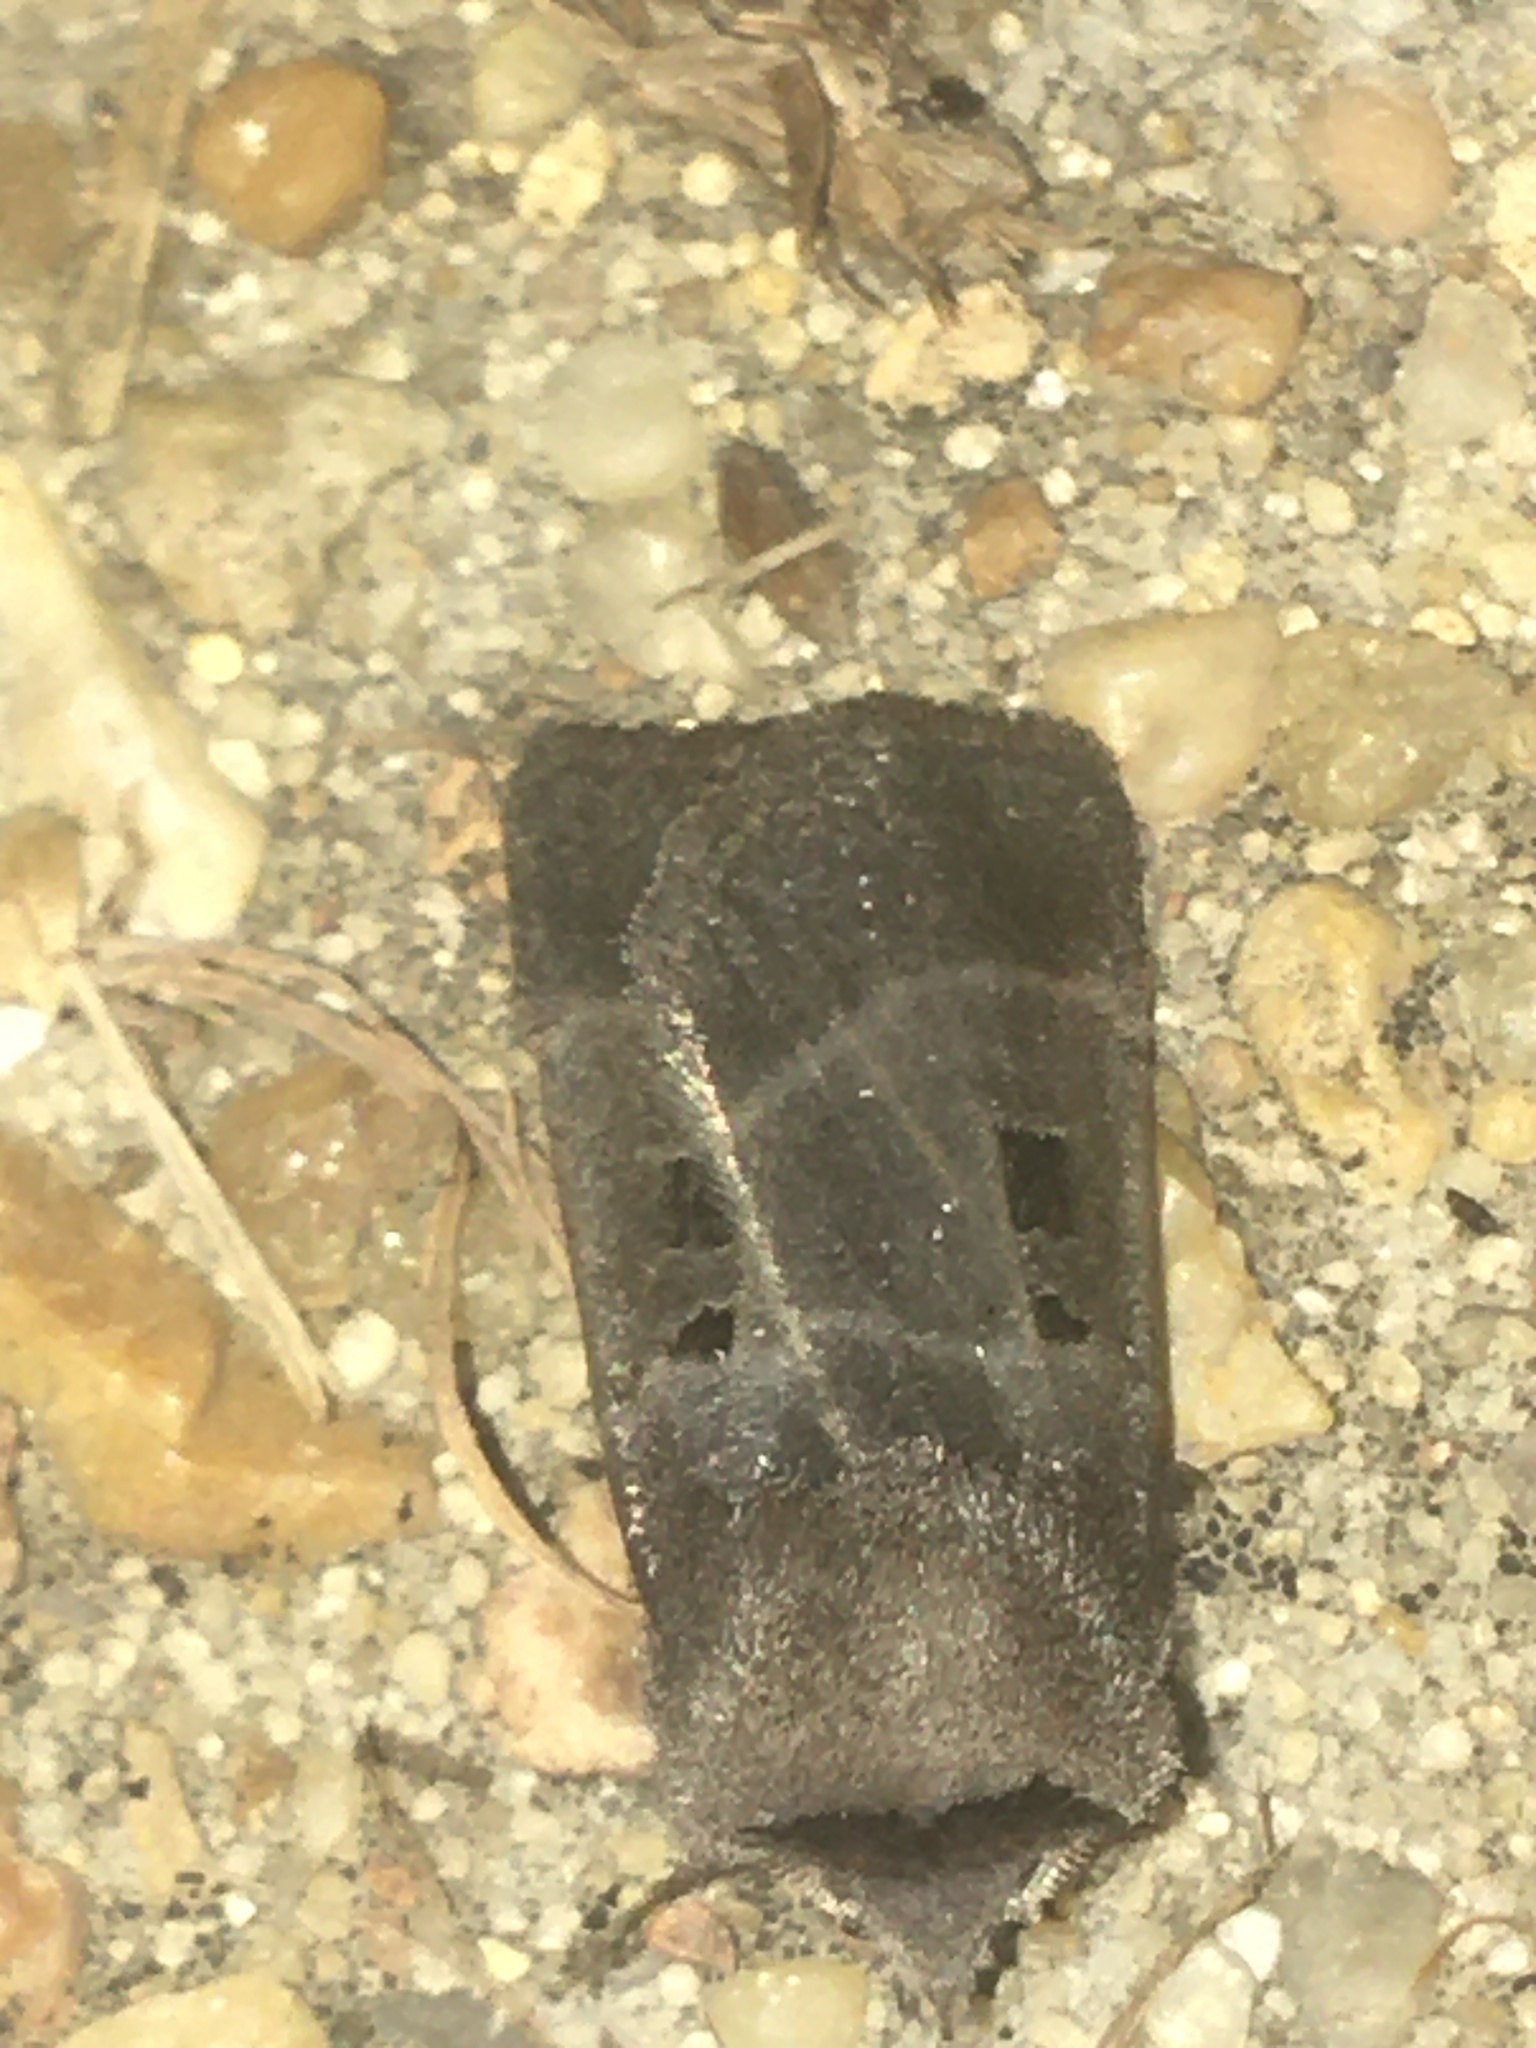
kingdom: Animalia
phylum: Arthropoda
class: Insecta
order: Lepidoptera
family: Noctuidae
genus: Agnorisma
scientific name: Agnorisma bollii
